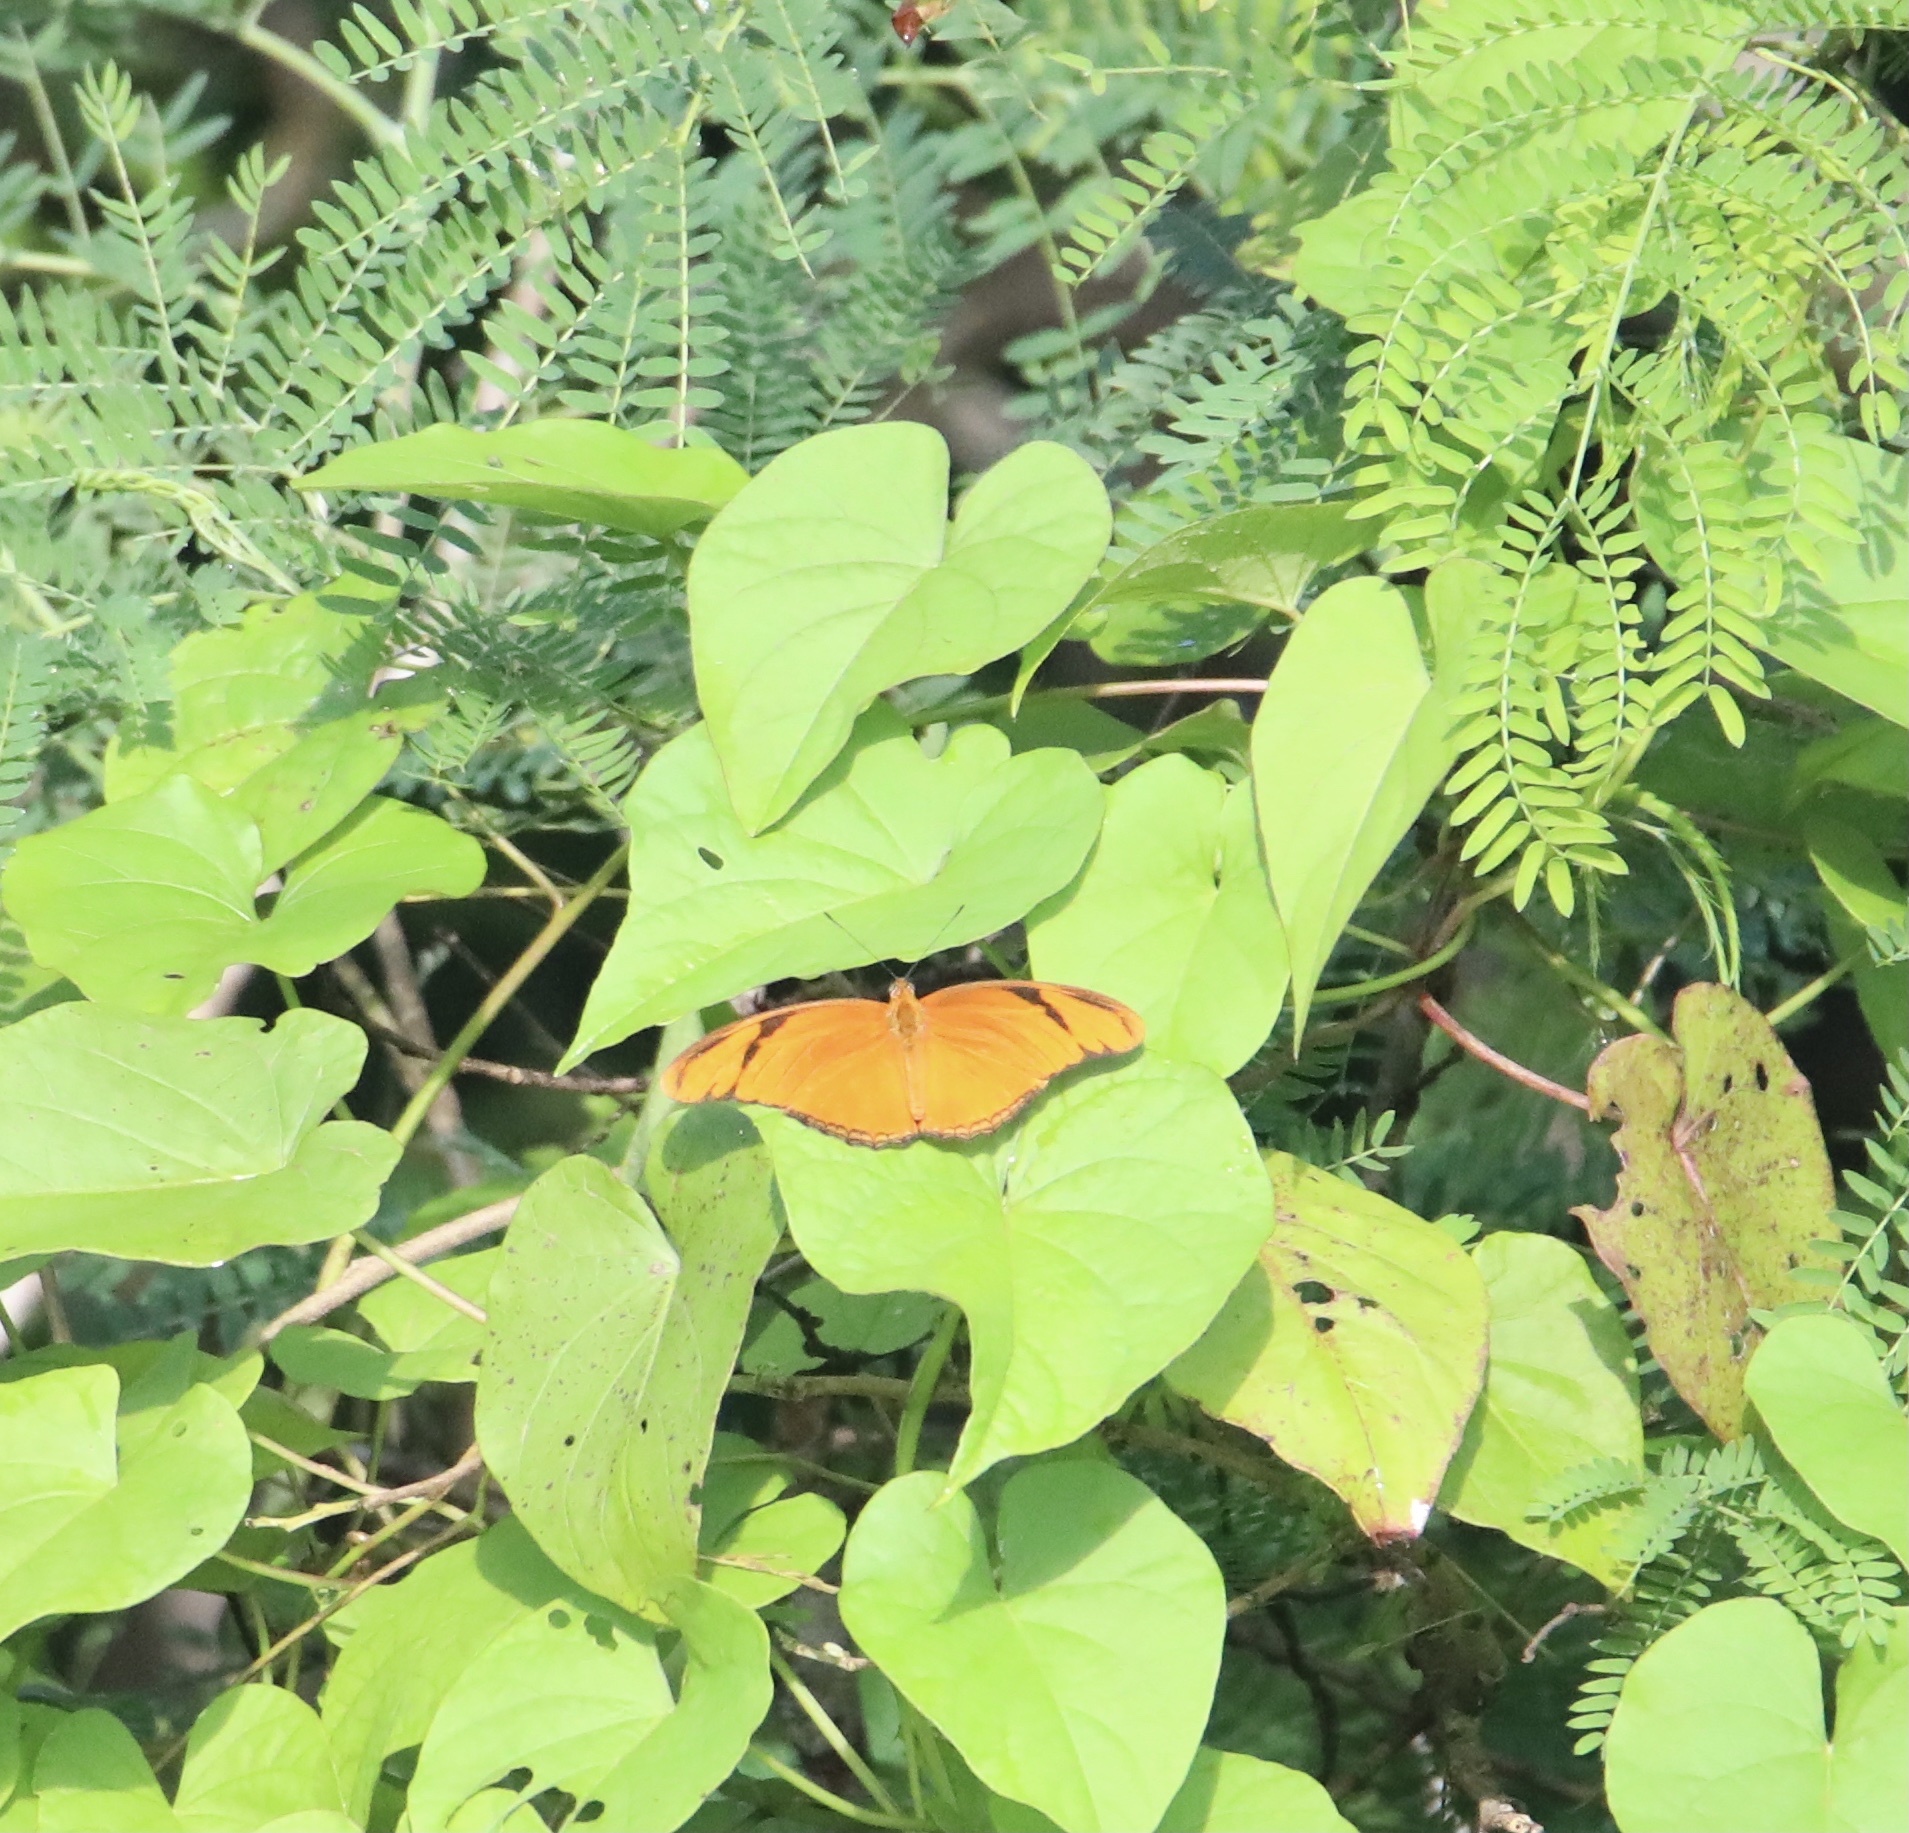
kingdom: Animalia
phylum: Arthropoda
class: Insecta
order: Lepidoptera
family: Nymphalidae
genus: Dryas
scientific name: Dryas iulia
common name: Flambeau
